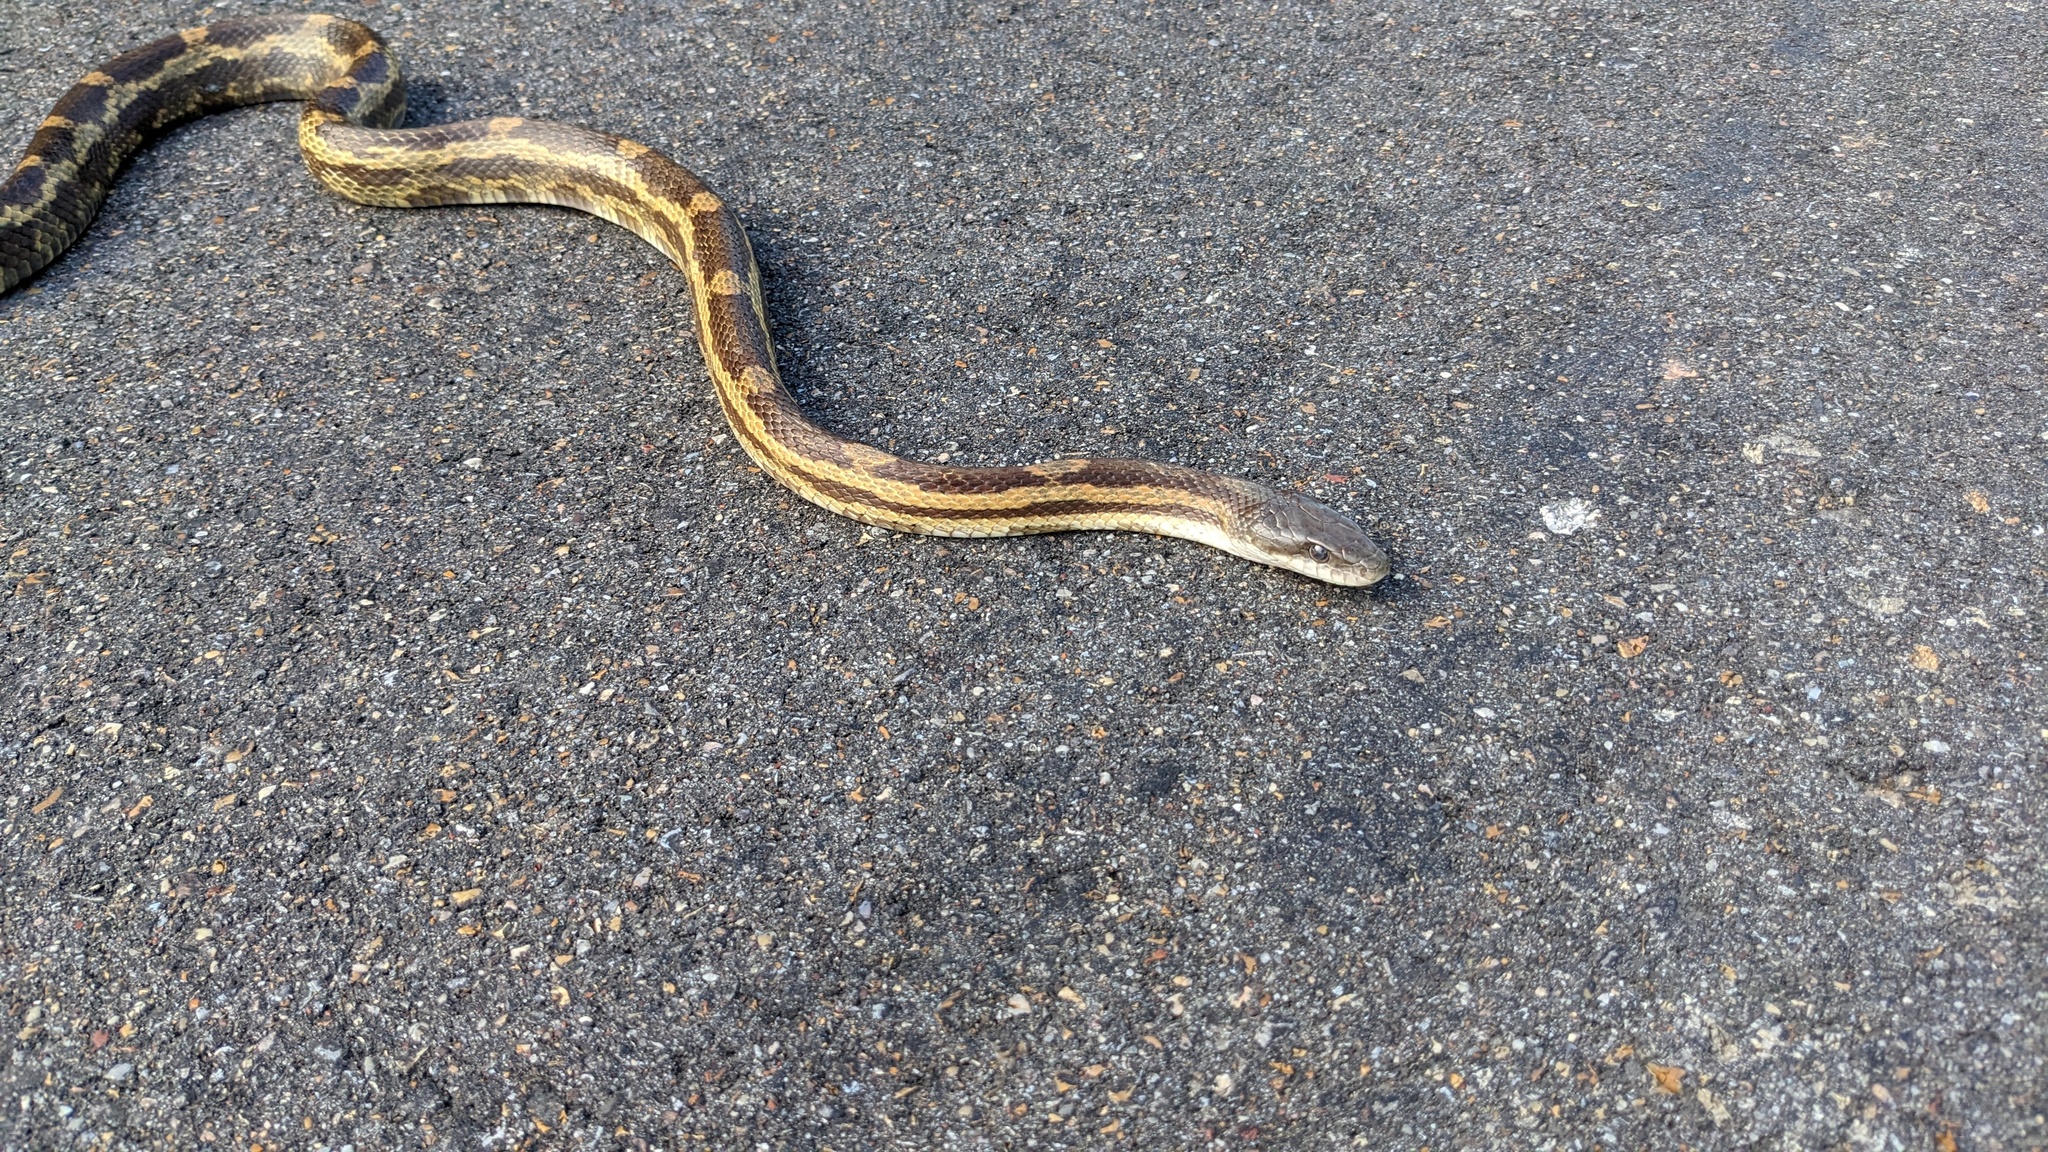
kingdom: Animalia
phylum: Chordata
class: Squamata
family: Colubridae
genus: Pantherophis
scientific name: Pantherophis spiloides
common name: Gray rat snake
